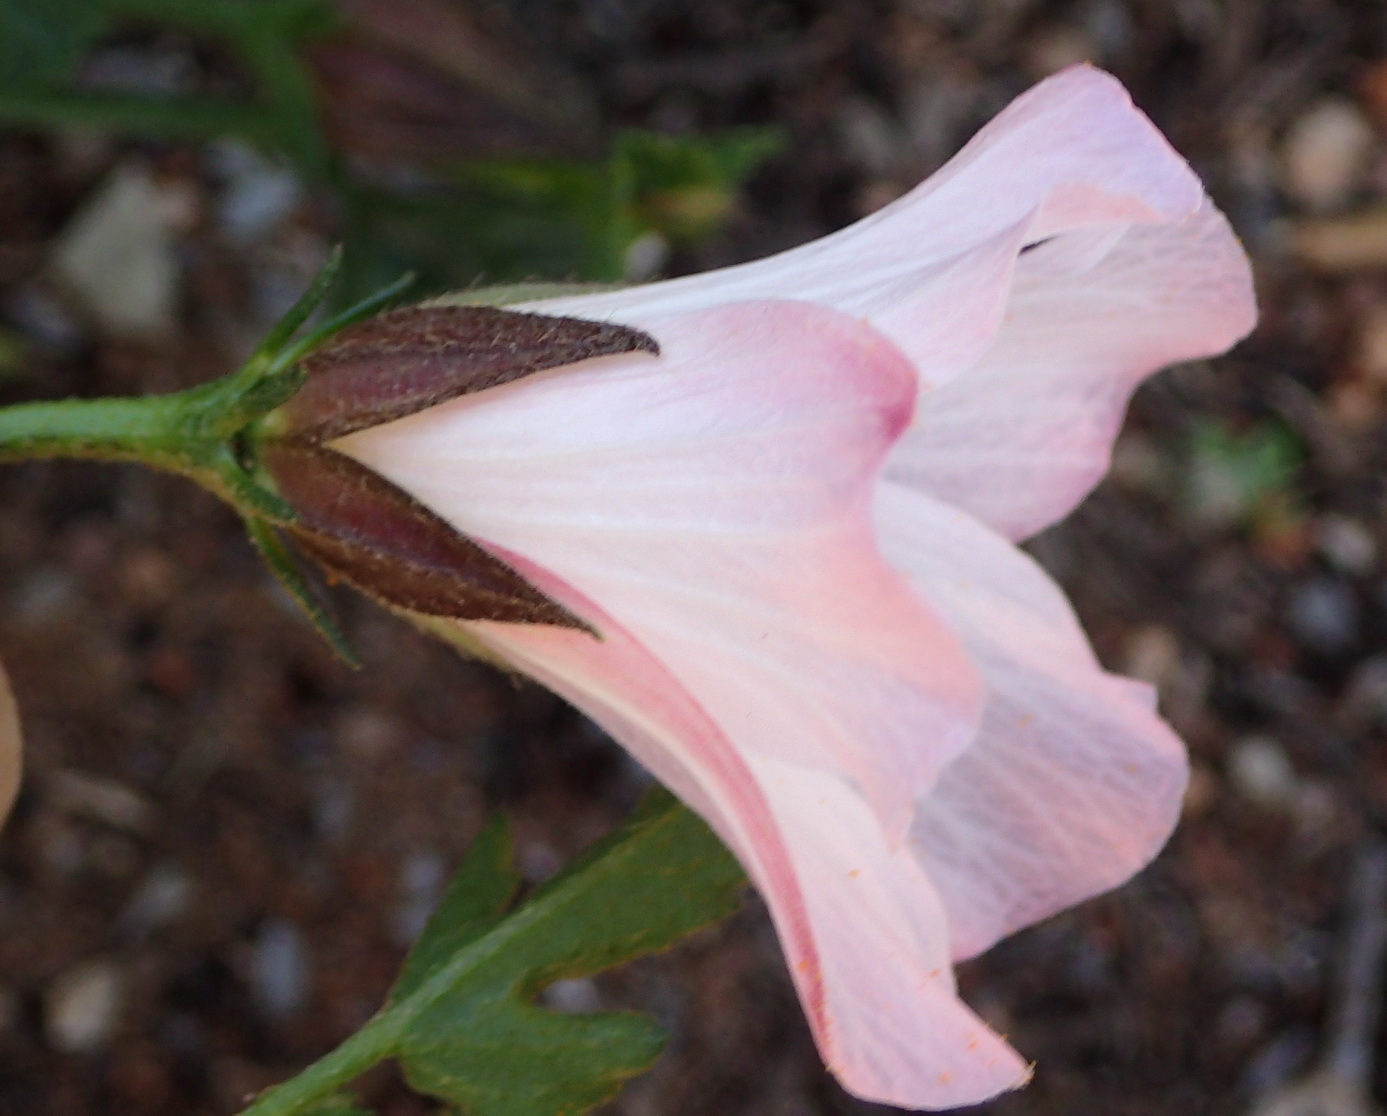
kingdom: Plantae
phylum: Tracheophyta
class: Magnoliopsida
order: Malvales
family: Malvaceae
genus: Hibiscus
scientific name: Hibiscus pusillus
